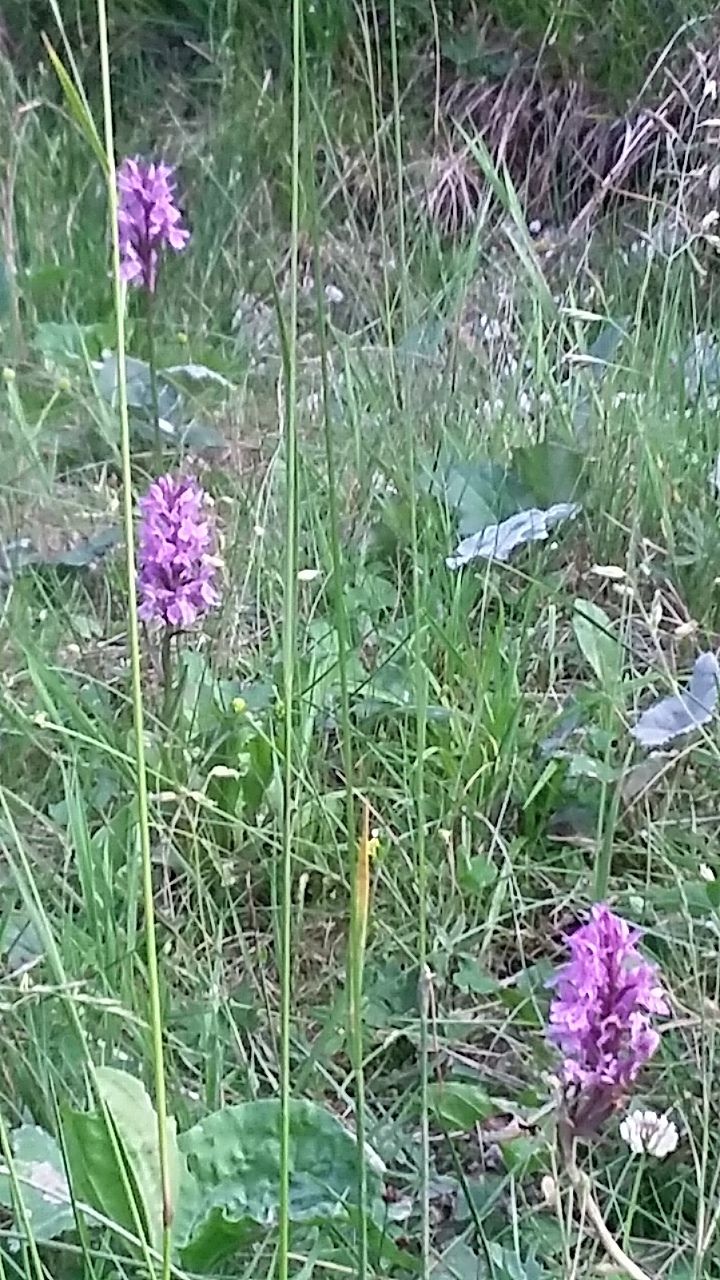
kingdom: Plantae
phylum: Tracheophyta
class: Liliopsida
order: Asparagales
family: Orchidaceae
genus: Dactylorhiza
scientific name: Dactylorhiza maculata
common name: Heath spotted-orchid
